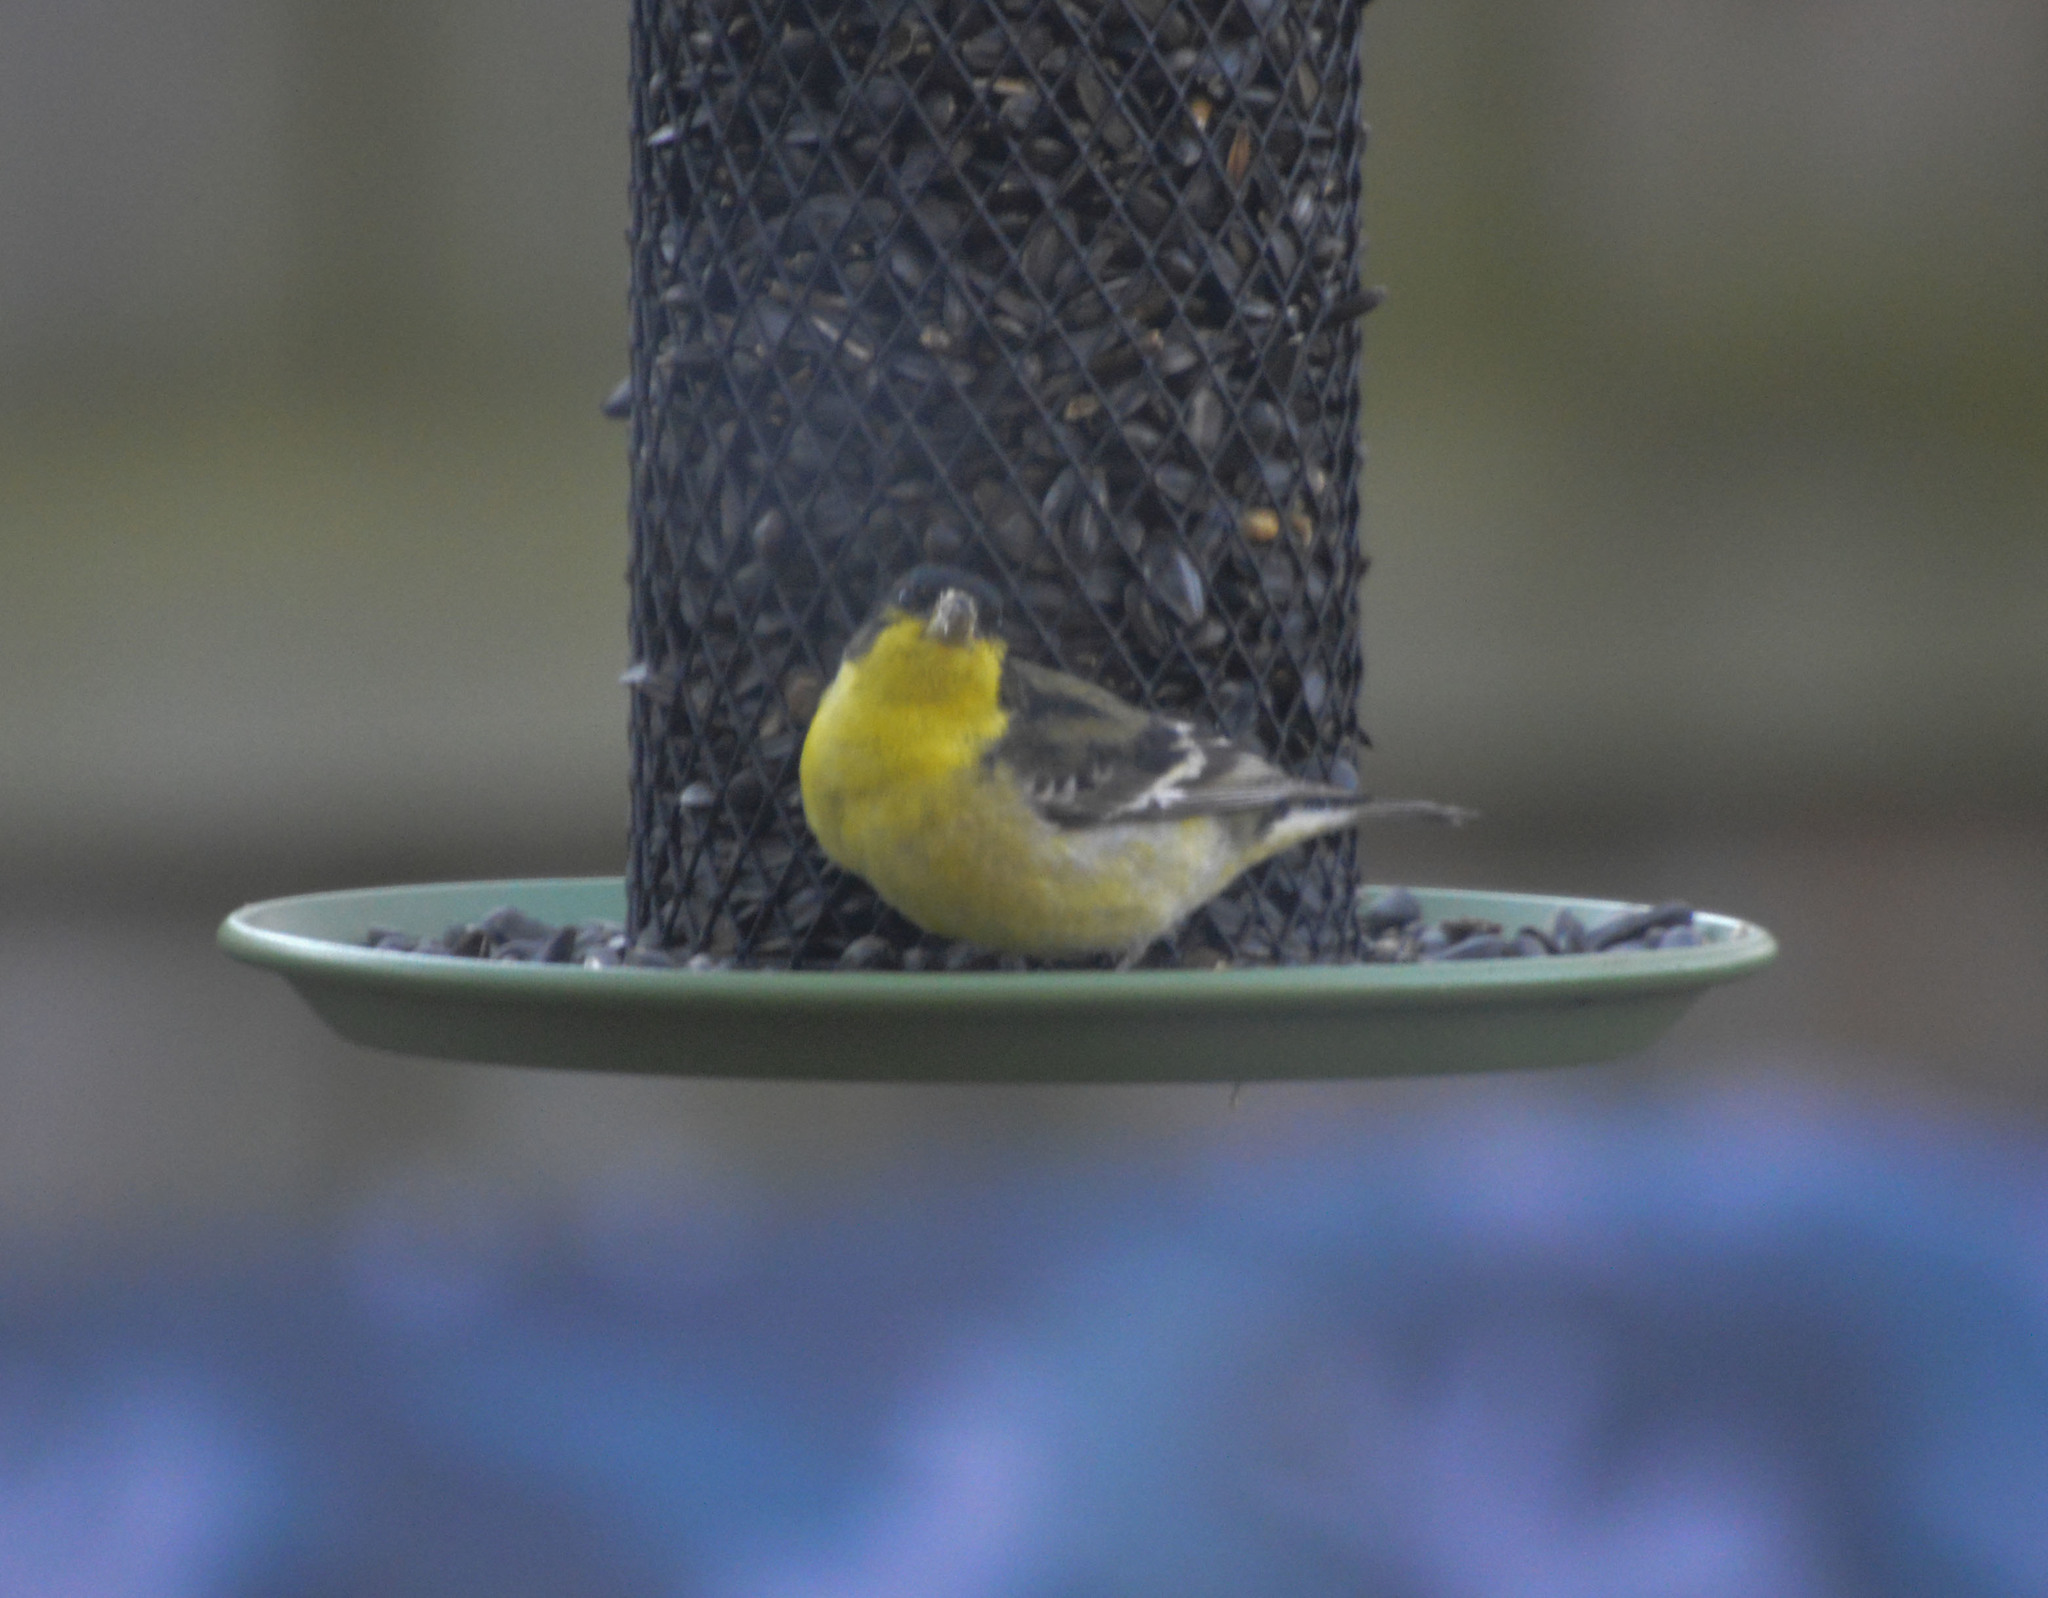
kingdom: Animalia
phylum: Chordata
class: Aves
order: Passeriformes
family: Fringillidae
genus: Spinus
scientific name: Spinus psaltria
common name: Lesser goldfinch
